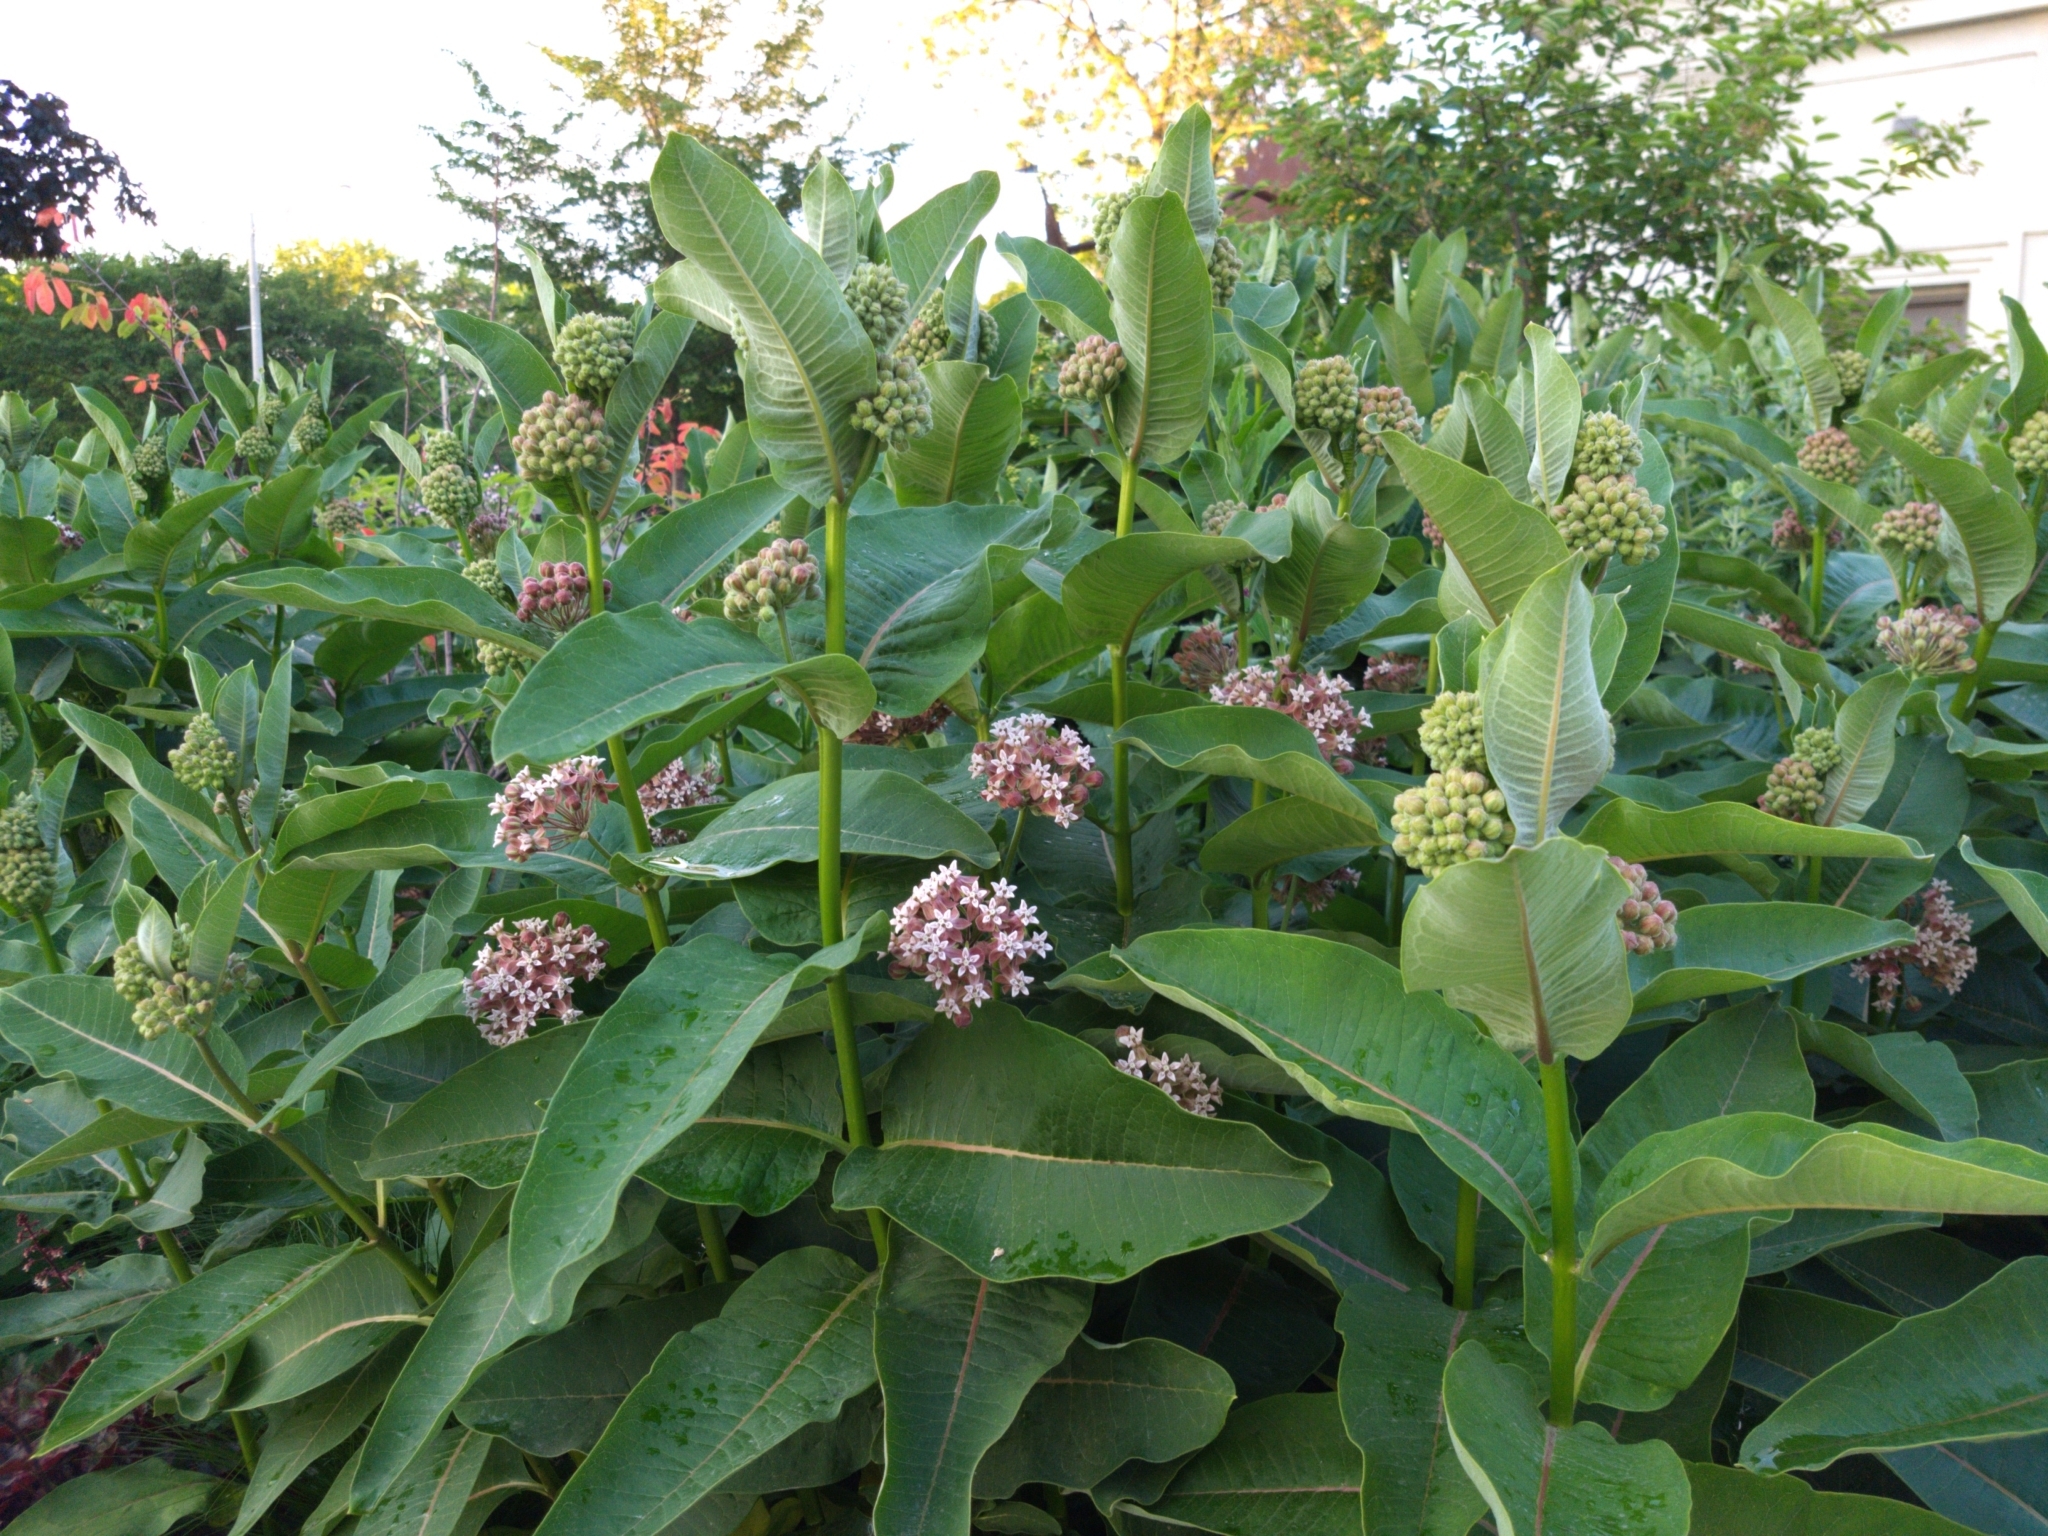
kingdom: Plantae
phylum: Tracheophyta
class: Magnoliopsida
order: Gentianales
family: Apocynaceae
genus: Asclepias
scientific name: Asclepias syriaca
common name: Common milkweed
